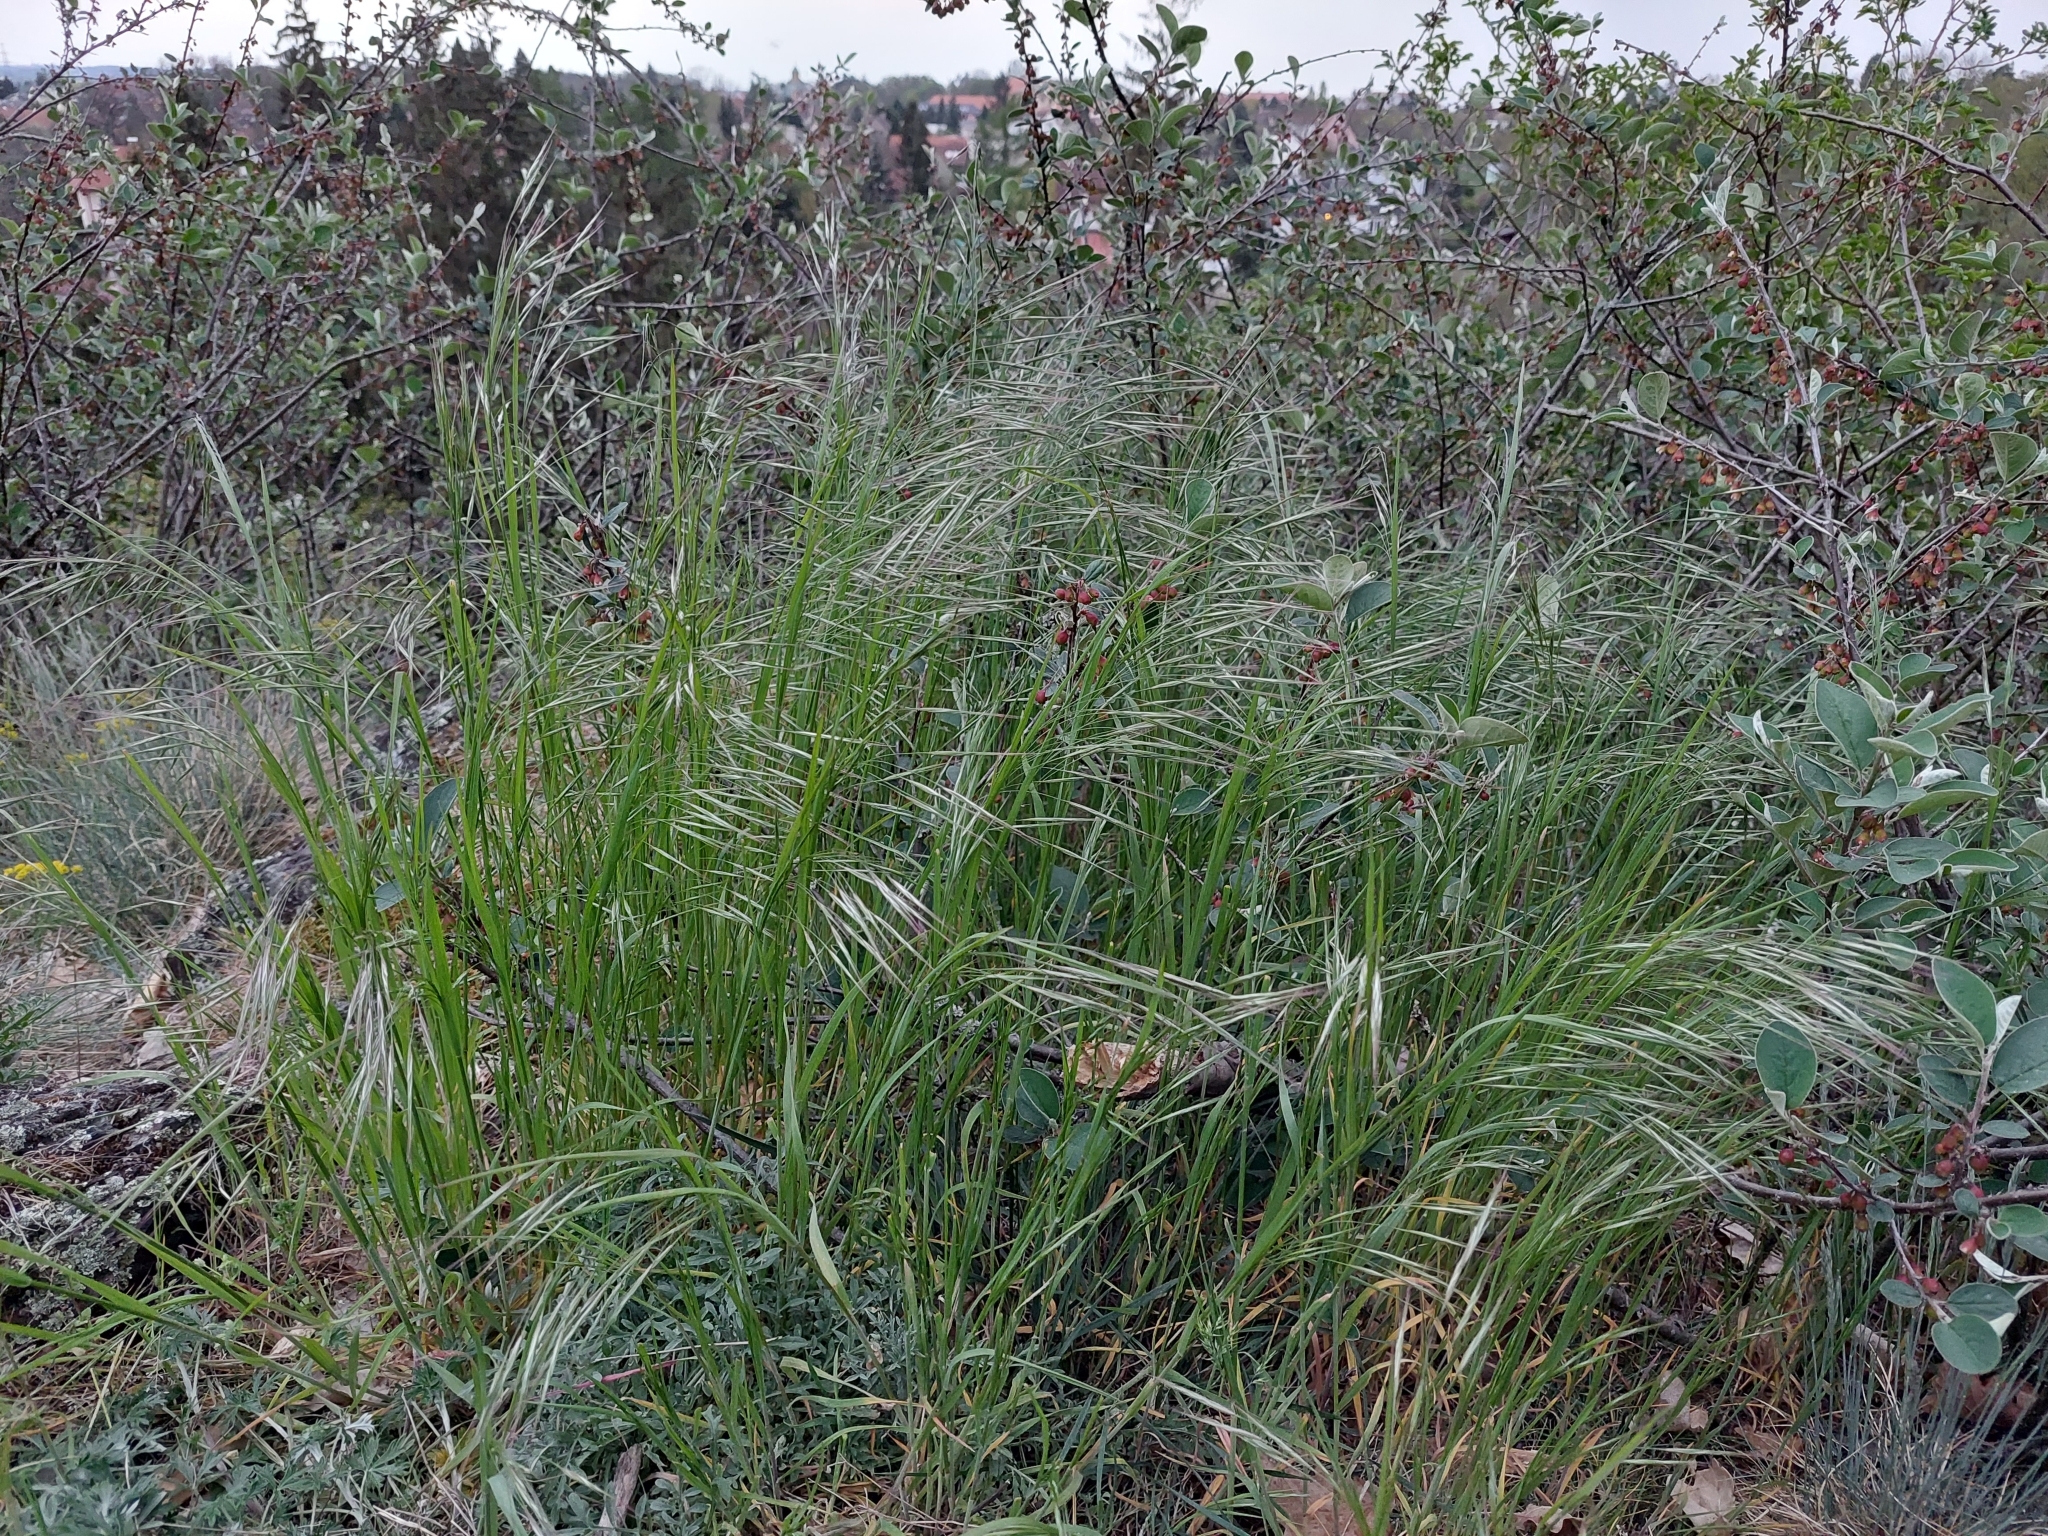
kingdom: Plantae
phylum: Tracheophyta
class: Liliopsida
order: Poales
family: Poaceae
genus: Bromus
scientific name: Bromus sterilis
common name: Poverty brome
